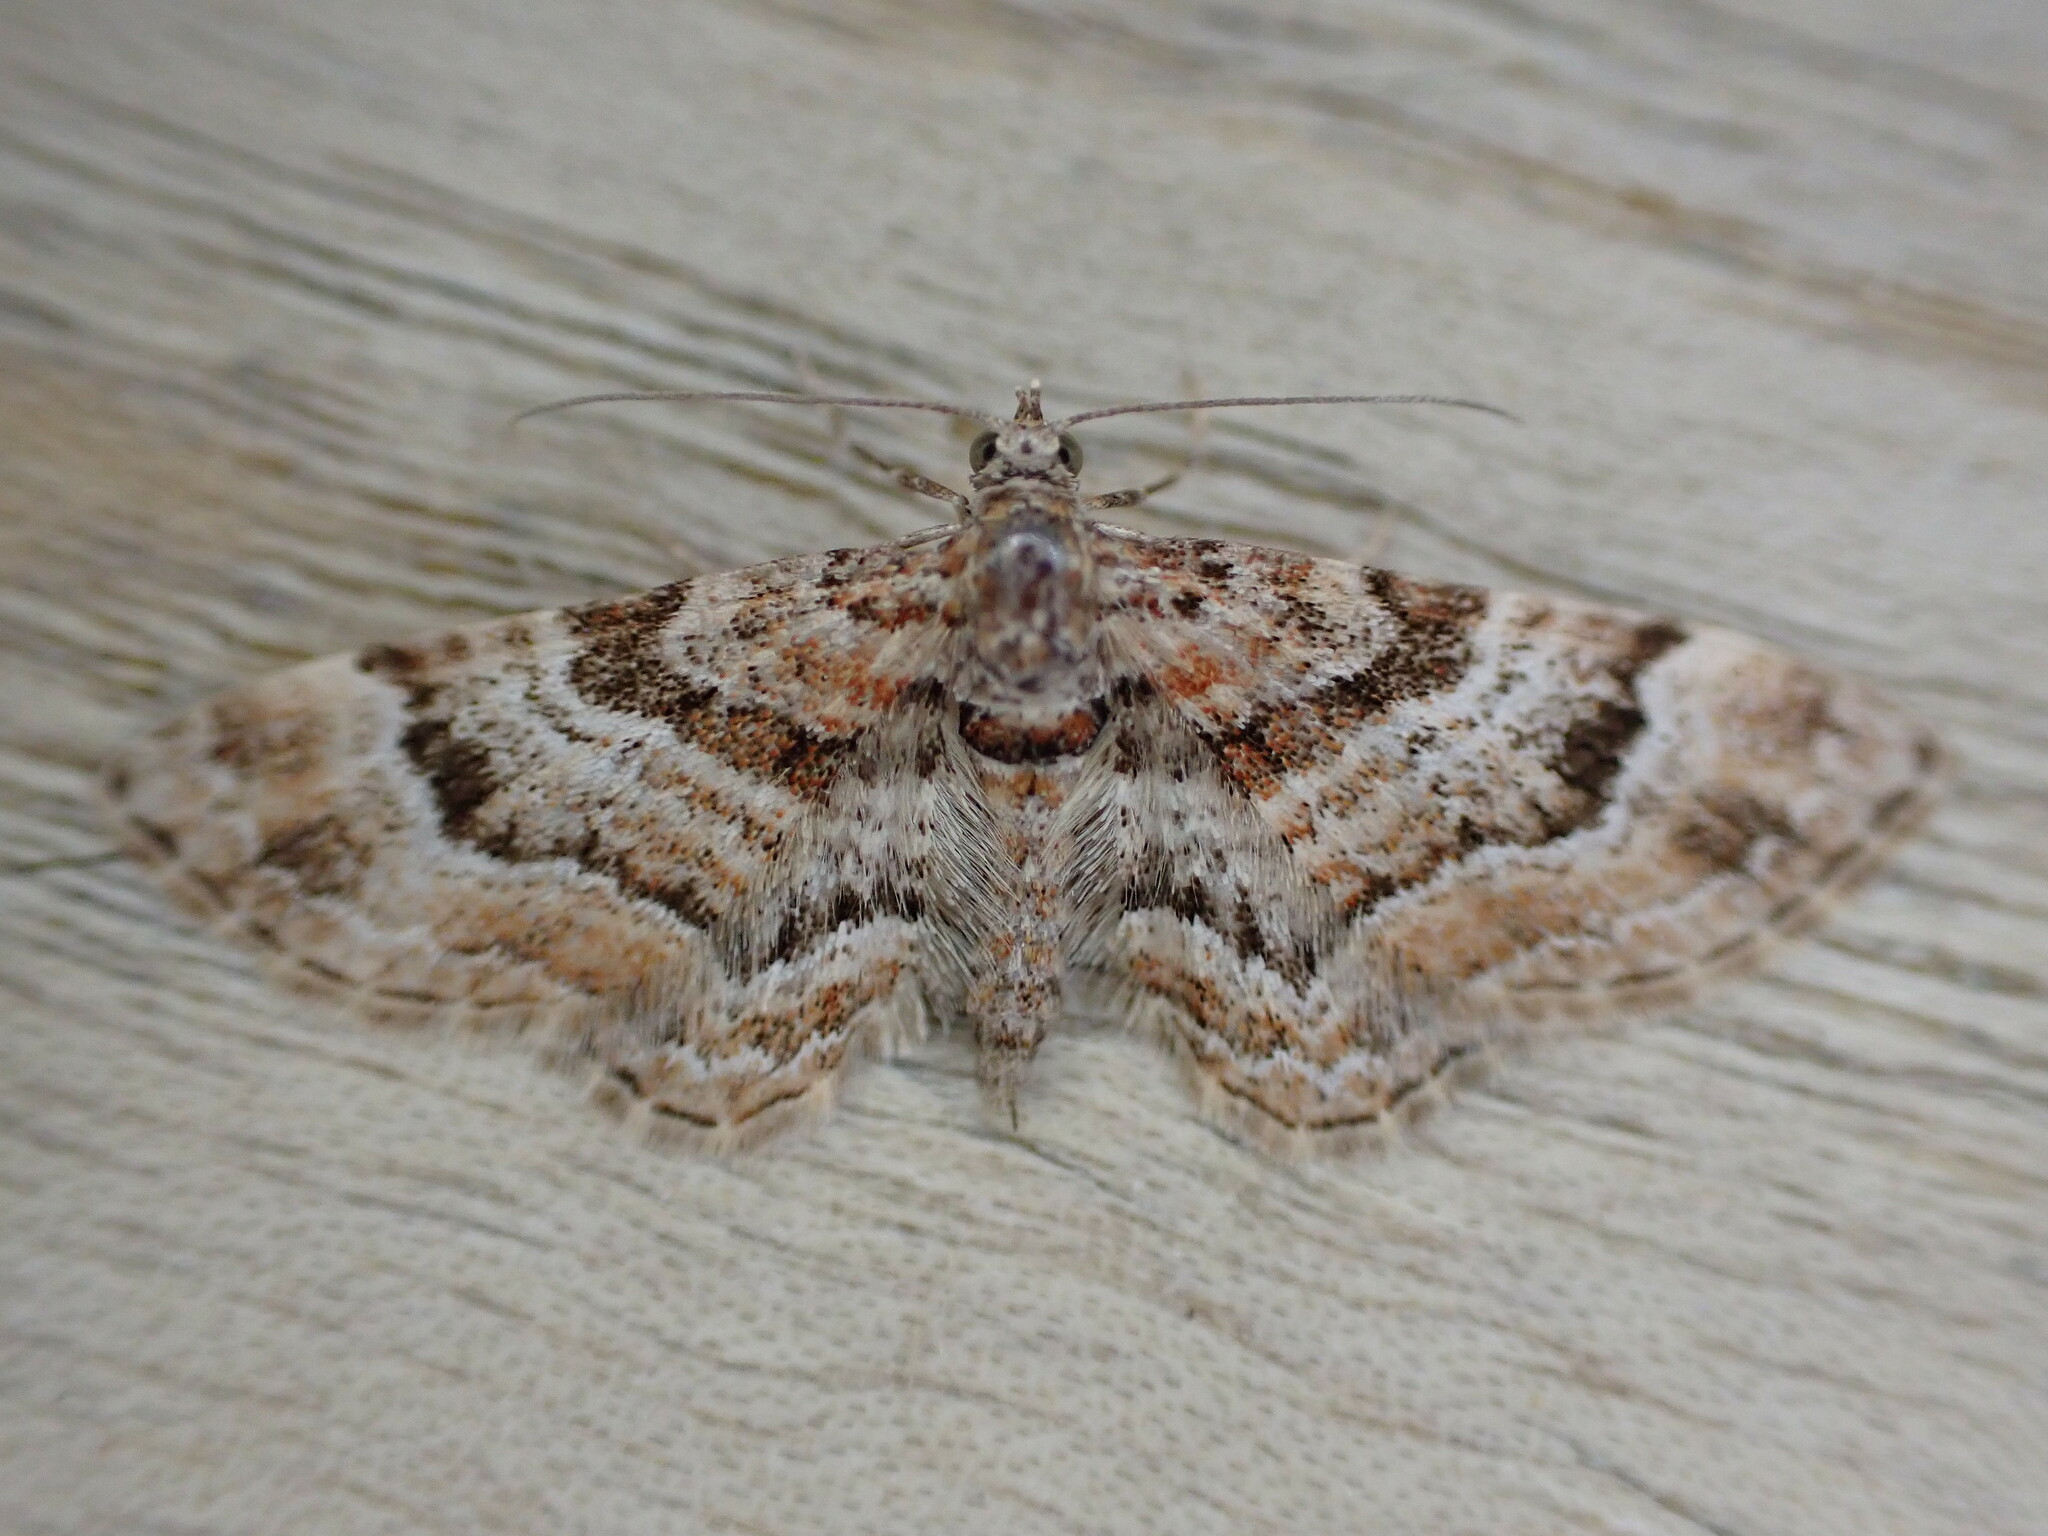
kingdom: Animalia
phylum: Arthropoda
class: Insecta
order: Lepidoptera
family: Geometridae
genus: Gymnoscelis
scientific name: Gymnoscelis rufifasciata
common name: Double-striped pug
